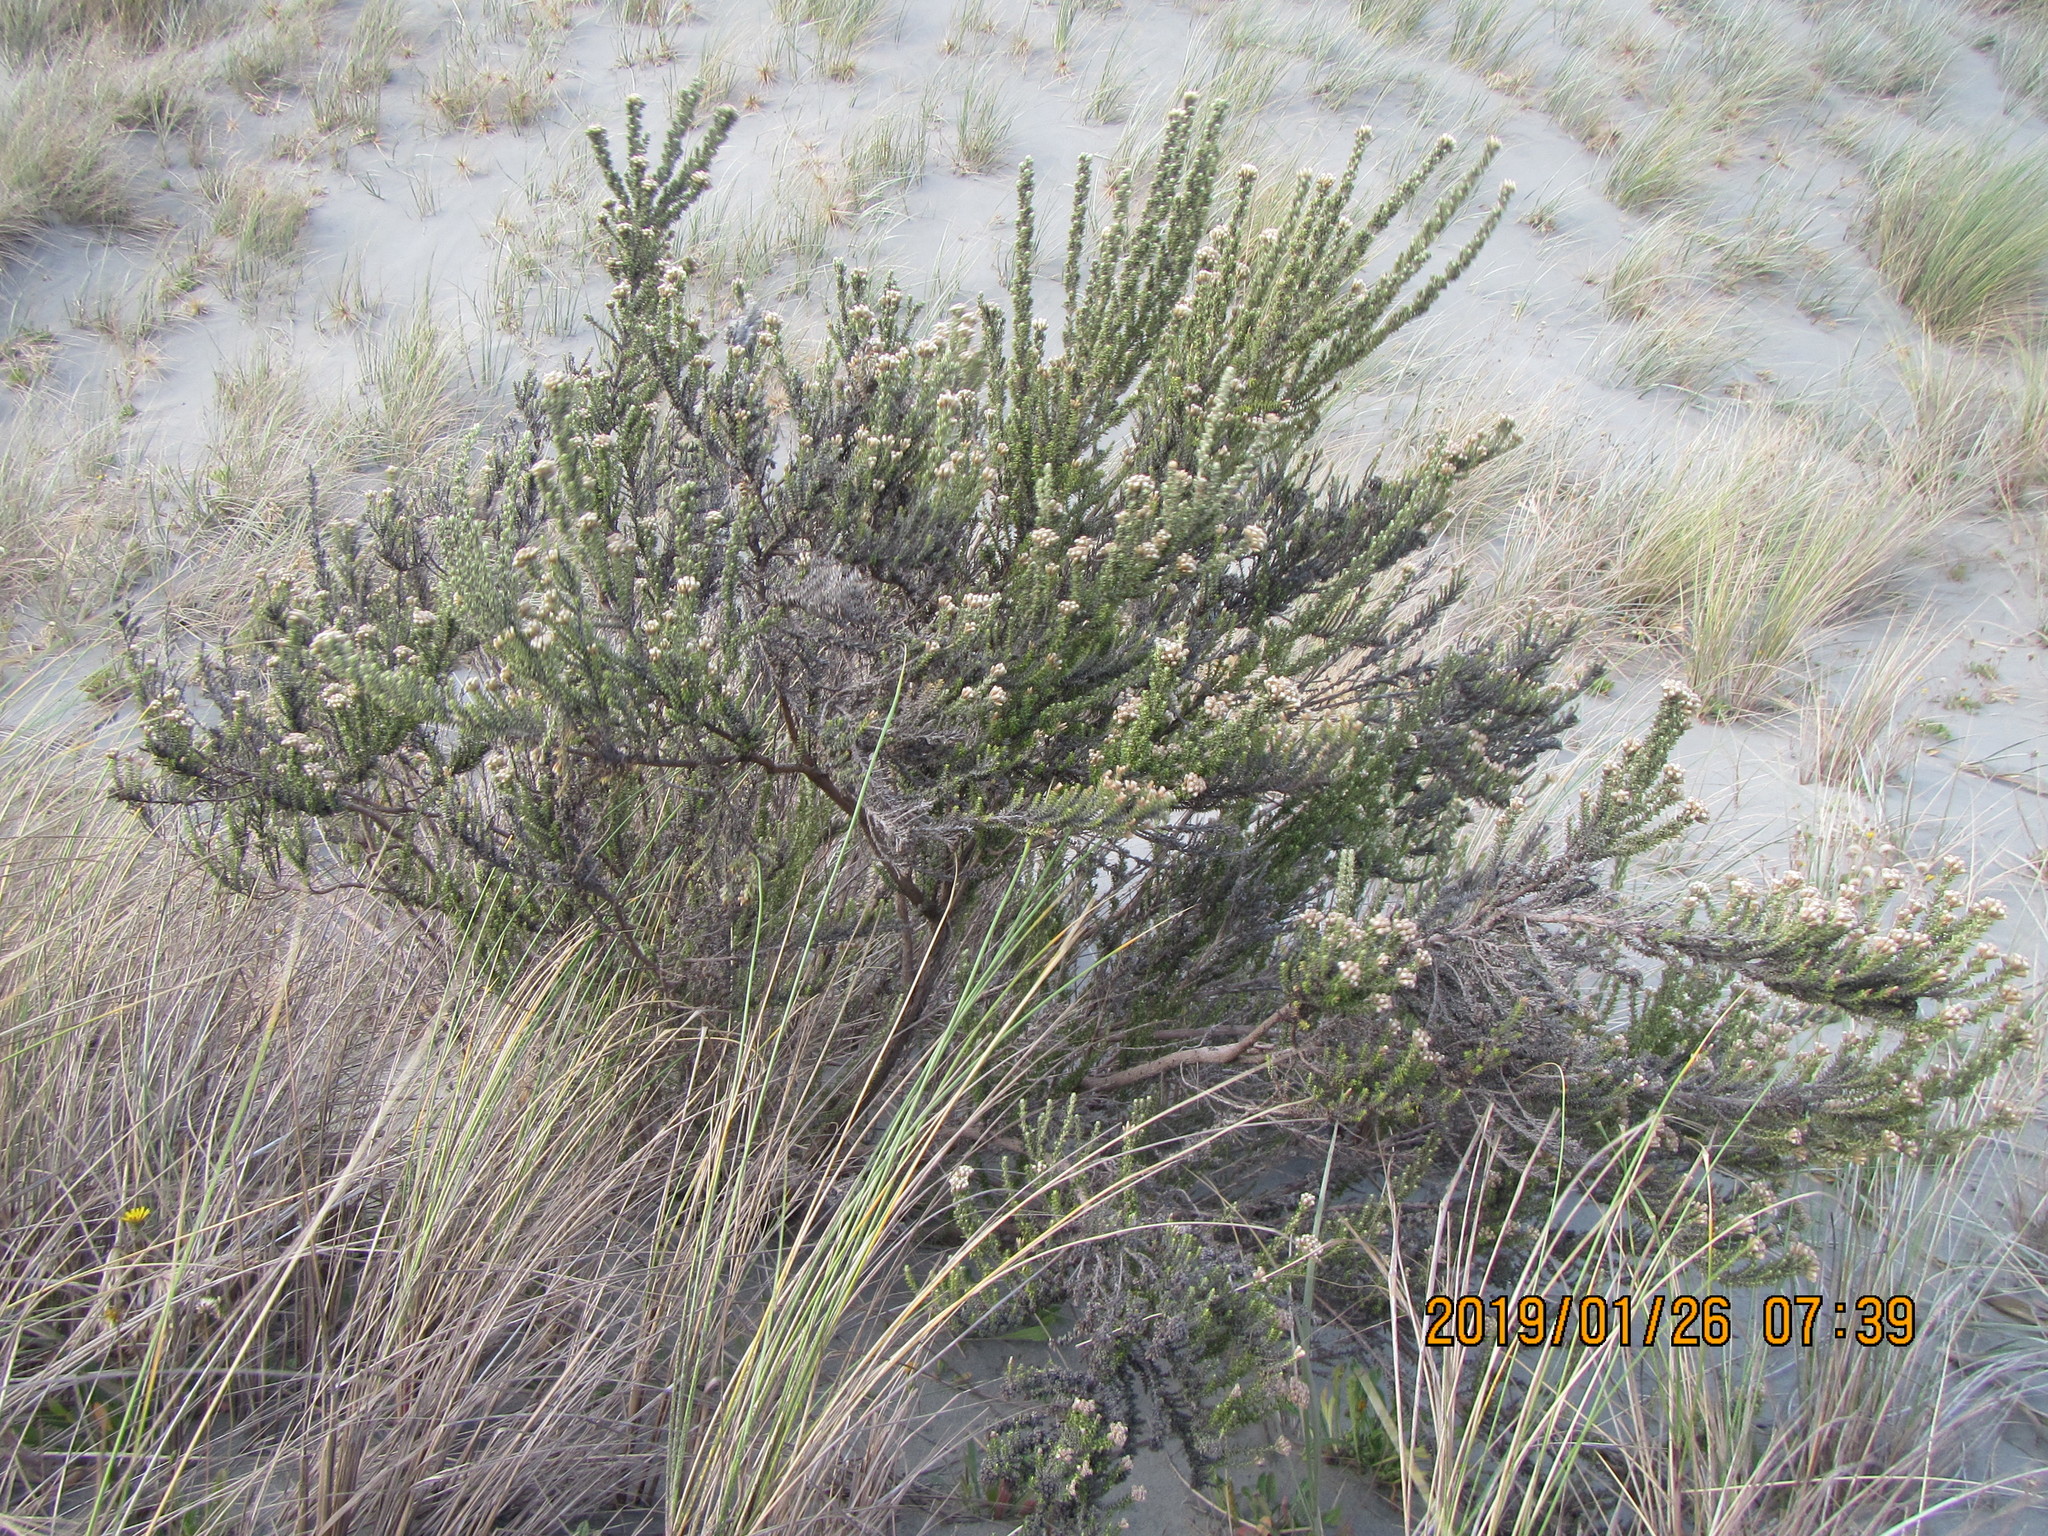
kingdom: Plantae
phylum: Tracheophyta
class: Magnoliopsida
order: Asterales
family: Asteraceae
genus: Ozothamnus
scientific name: Ozothamnus leptophyllus
